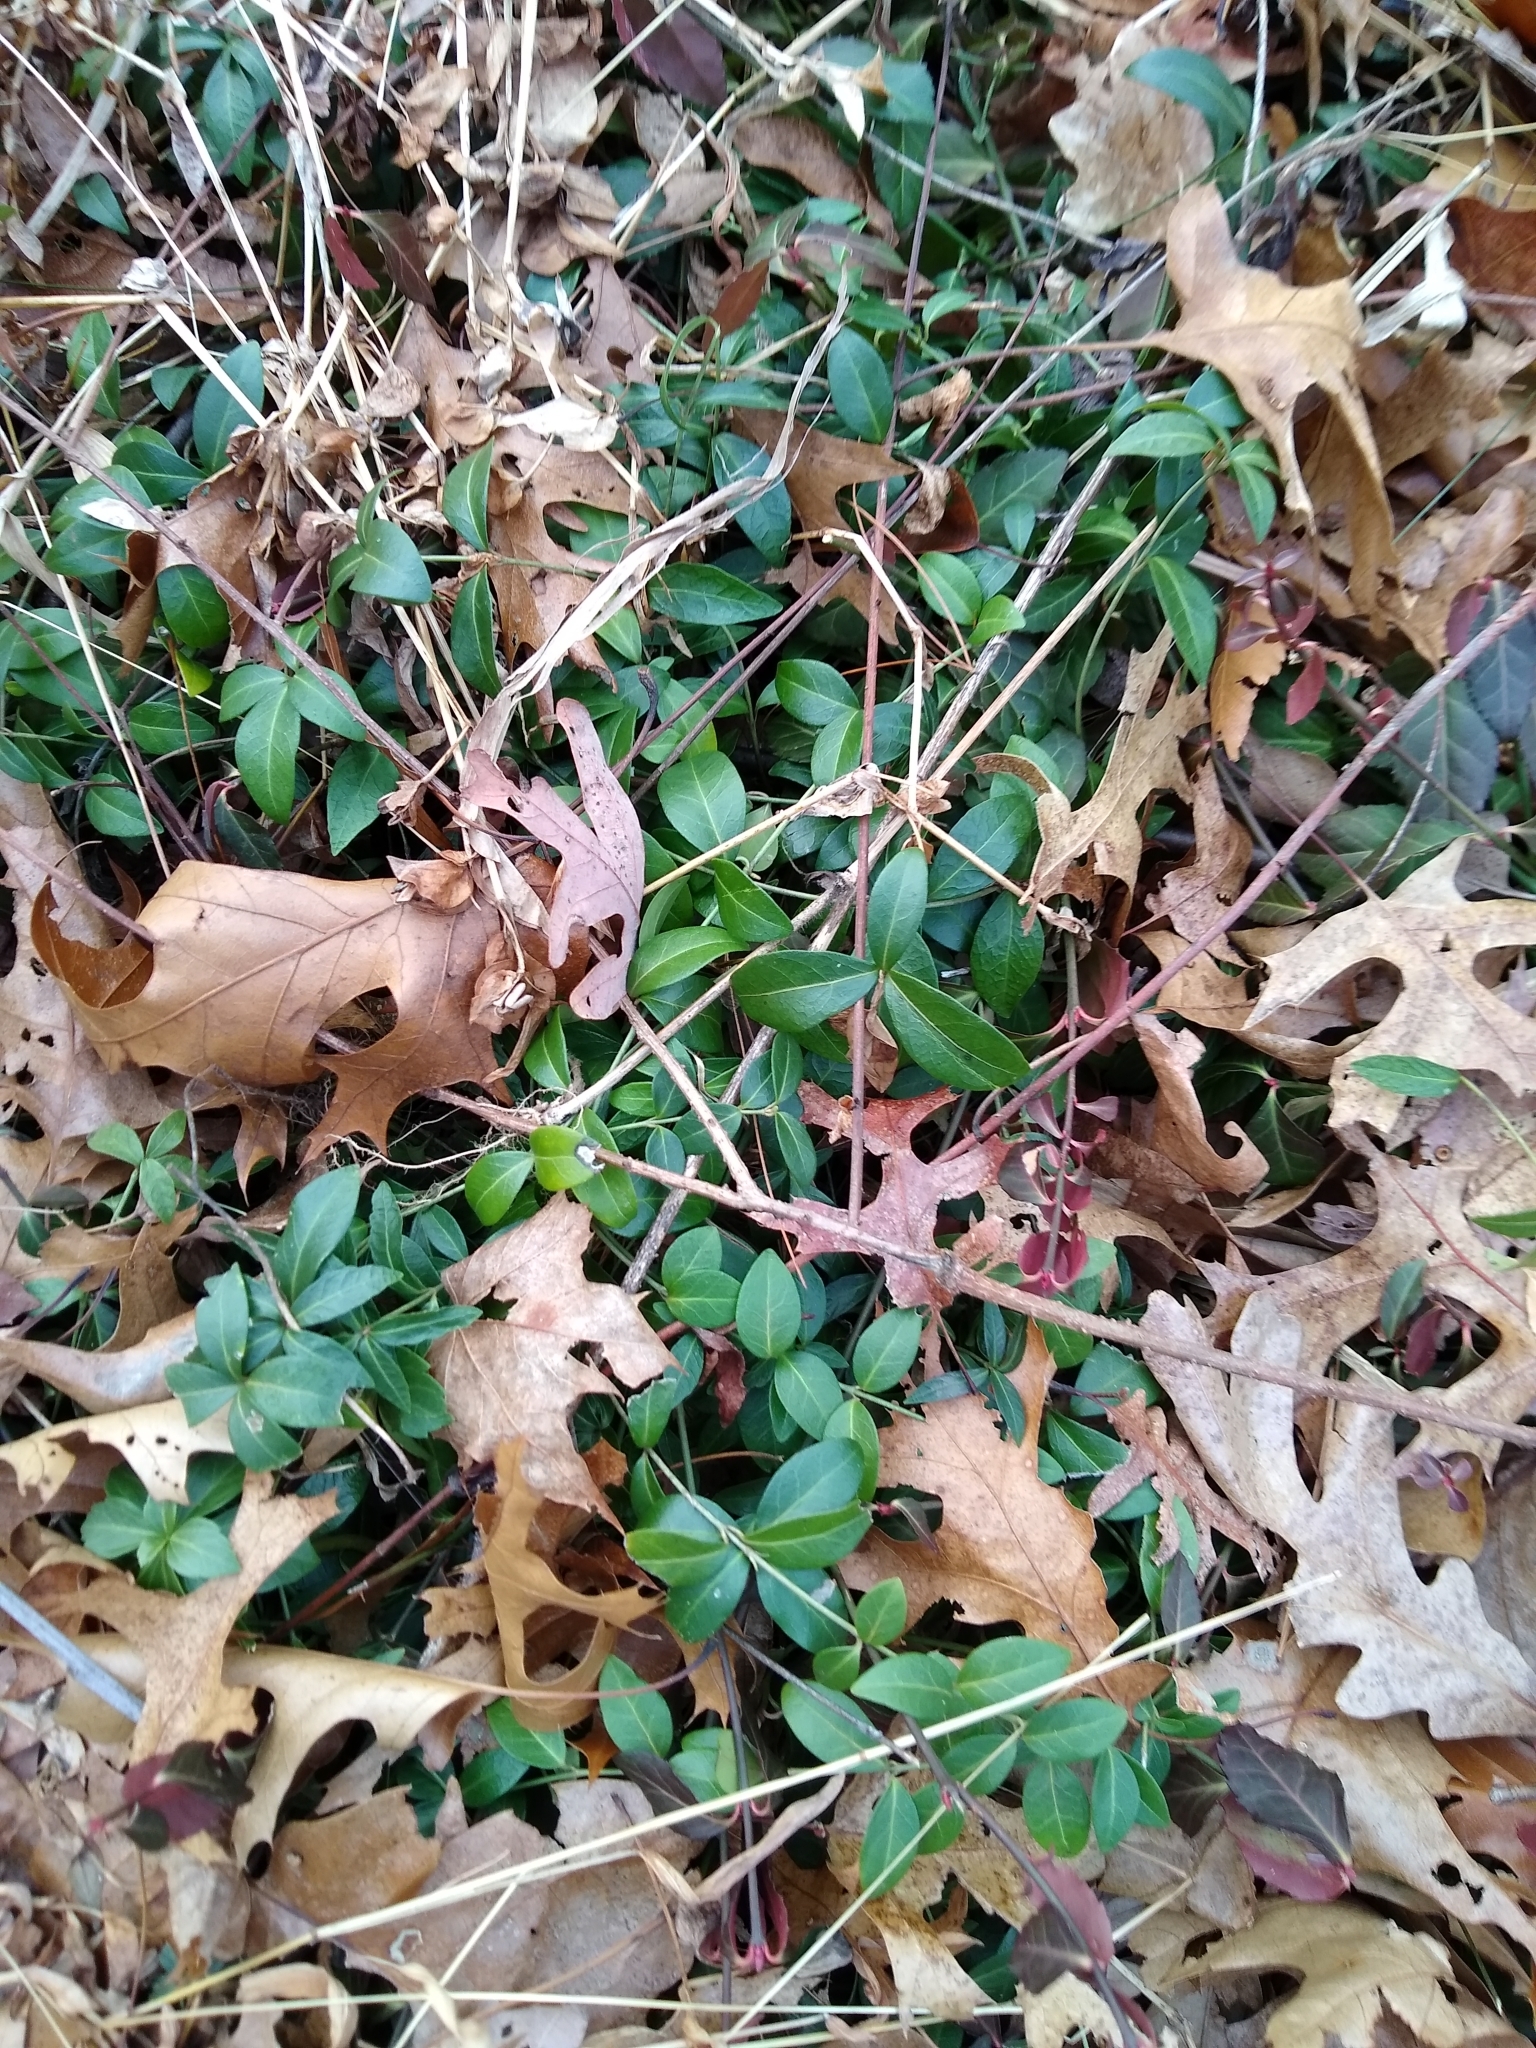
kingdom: Plantae
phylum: Tracheophyta
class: Magnoliopsida
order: Gentianales
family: Apocynaceae
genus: Vinca
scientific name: Vinca minor
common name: Lesser periwinkle
